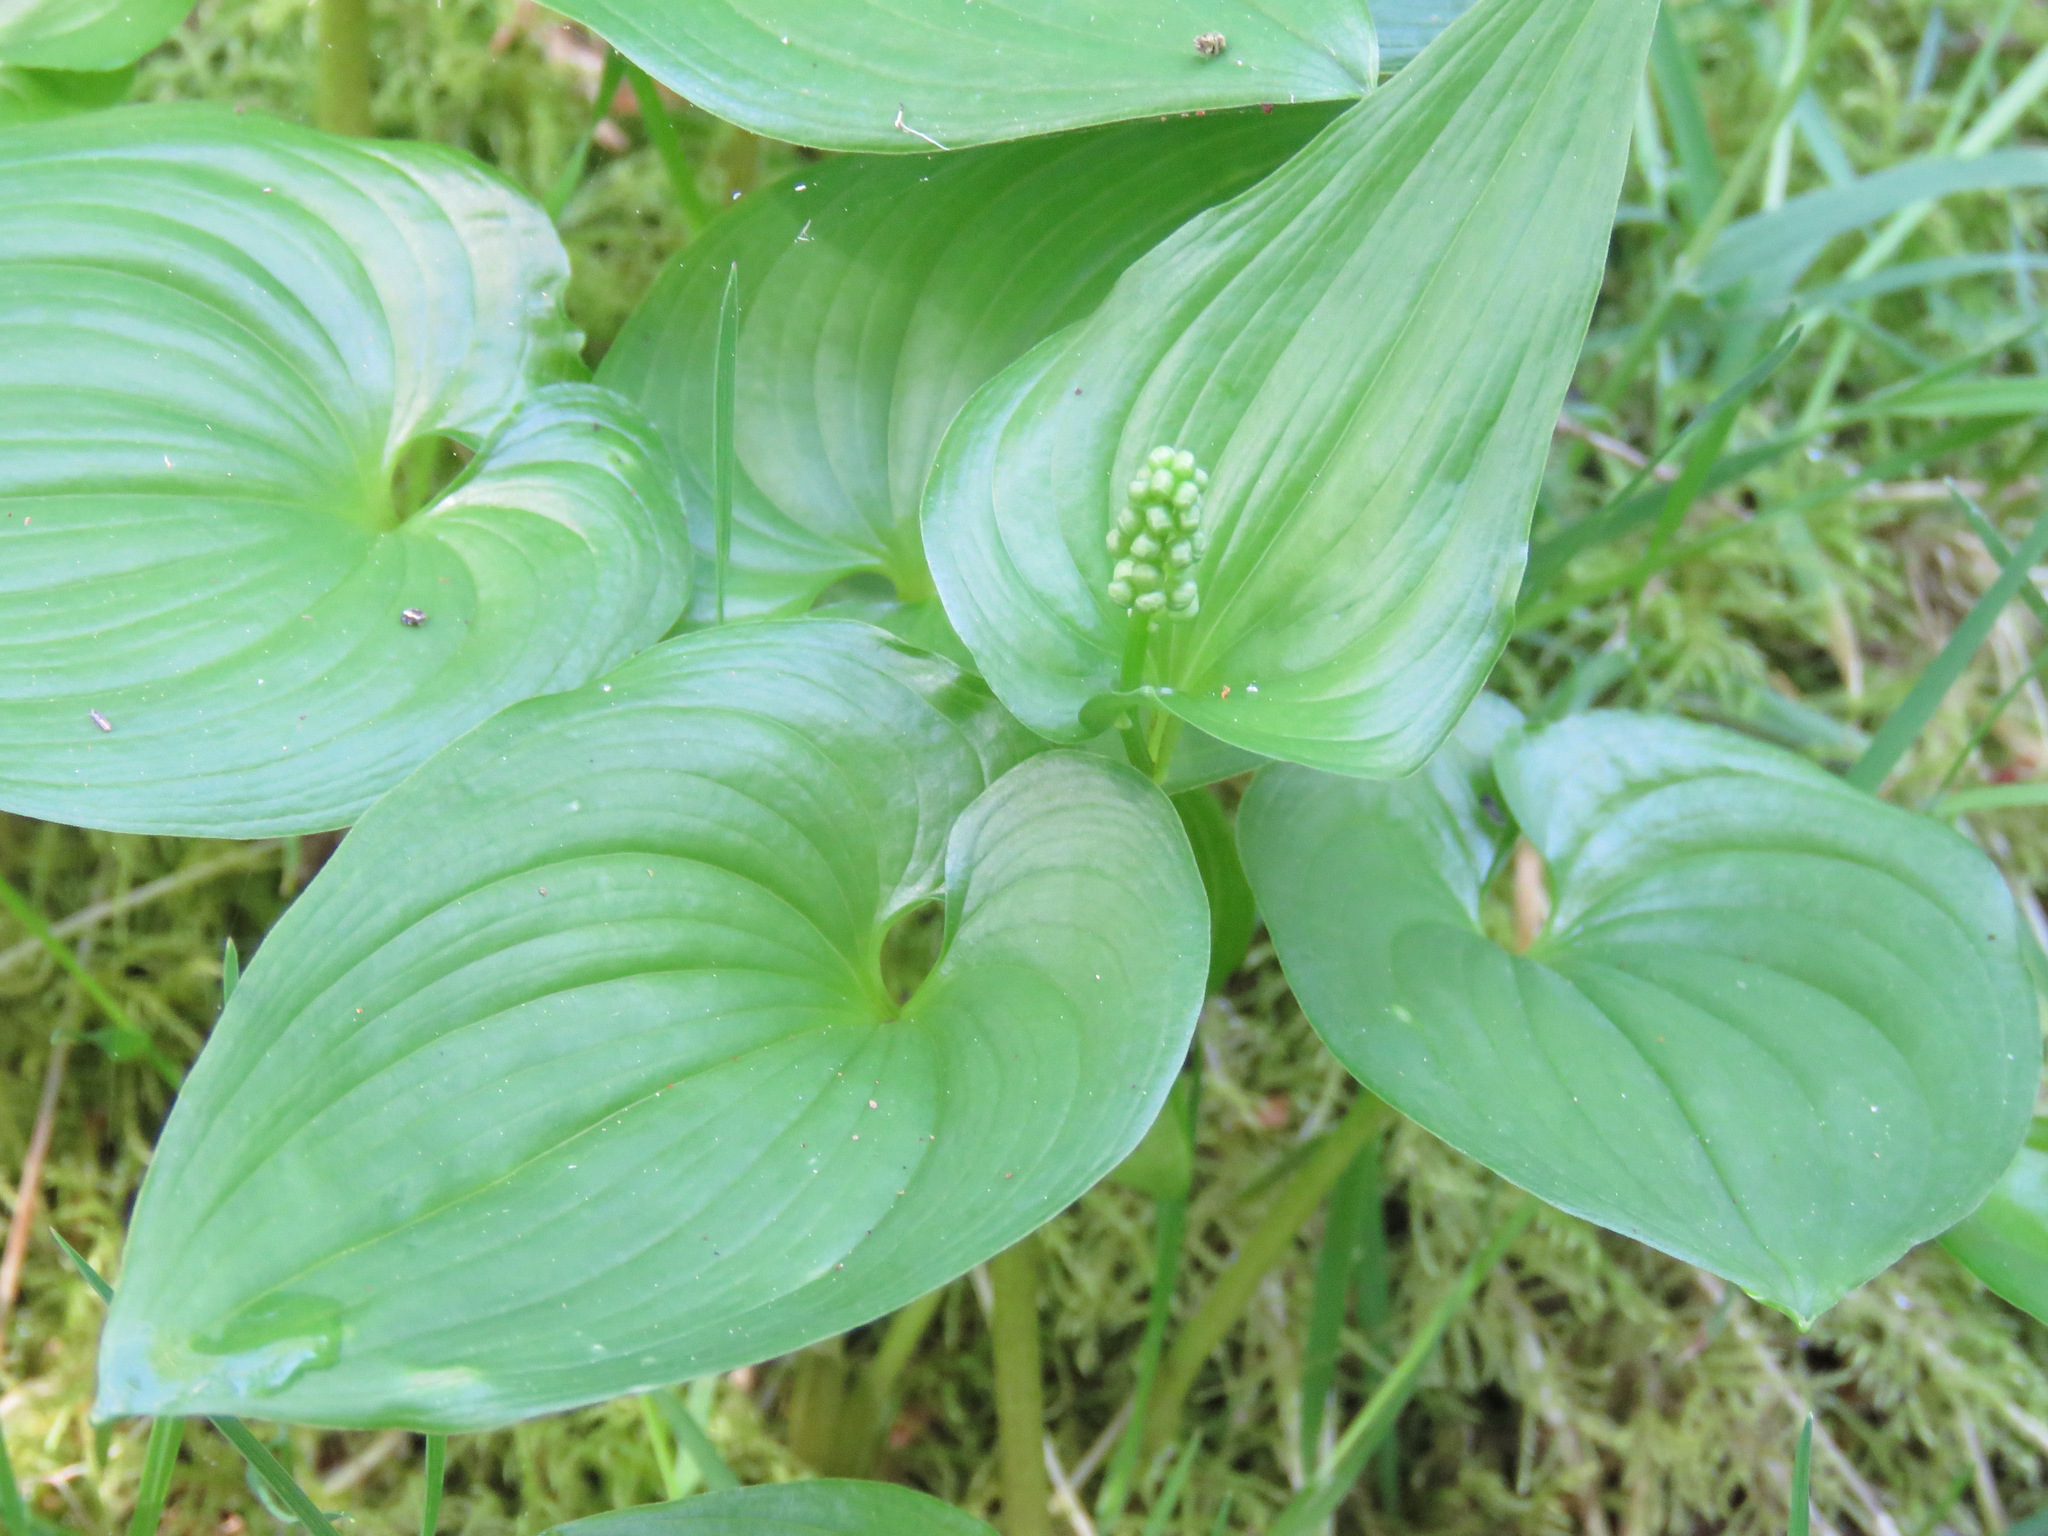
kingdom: Plantae
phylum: Tracheophyta
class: Liliopsida
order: Asparagales
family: Asparagaceae
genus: Maianthemum
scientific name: Maianthemum dilatatum
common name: False lily-of-the-valley
